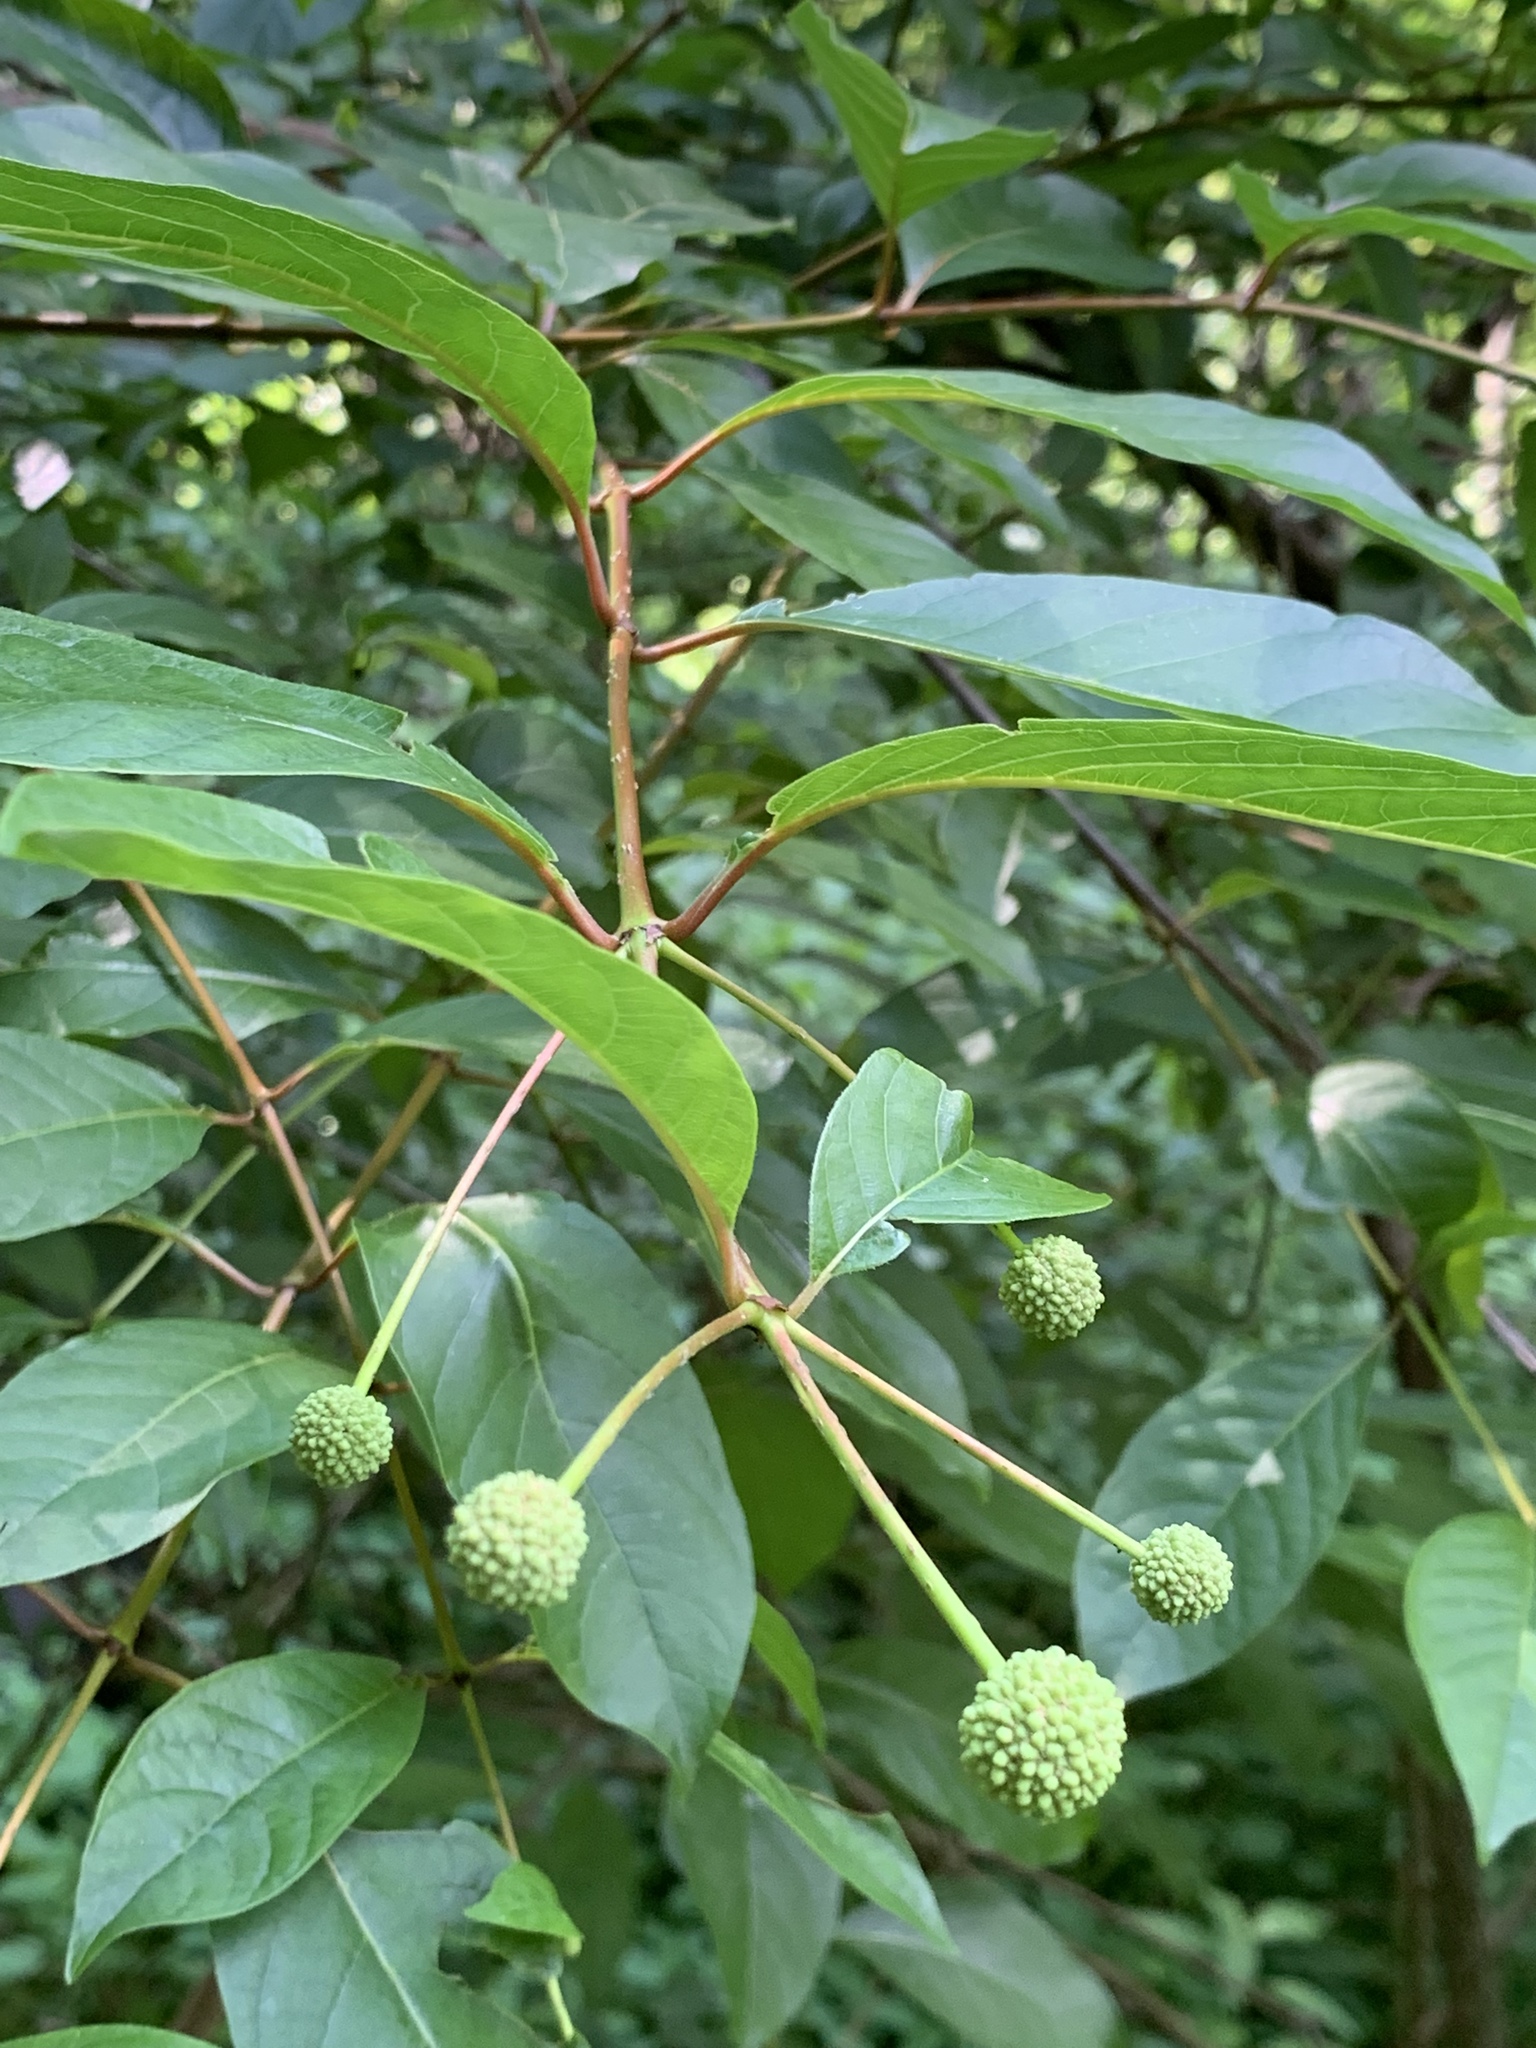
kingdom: Plantae
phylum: Tracheophyta
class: Magnoliopsida
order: Gentianales
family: Rubiaceae
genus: Cephalanthus
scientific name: Cephalanthus occidentalis
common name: Button-willow
